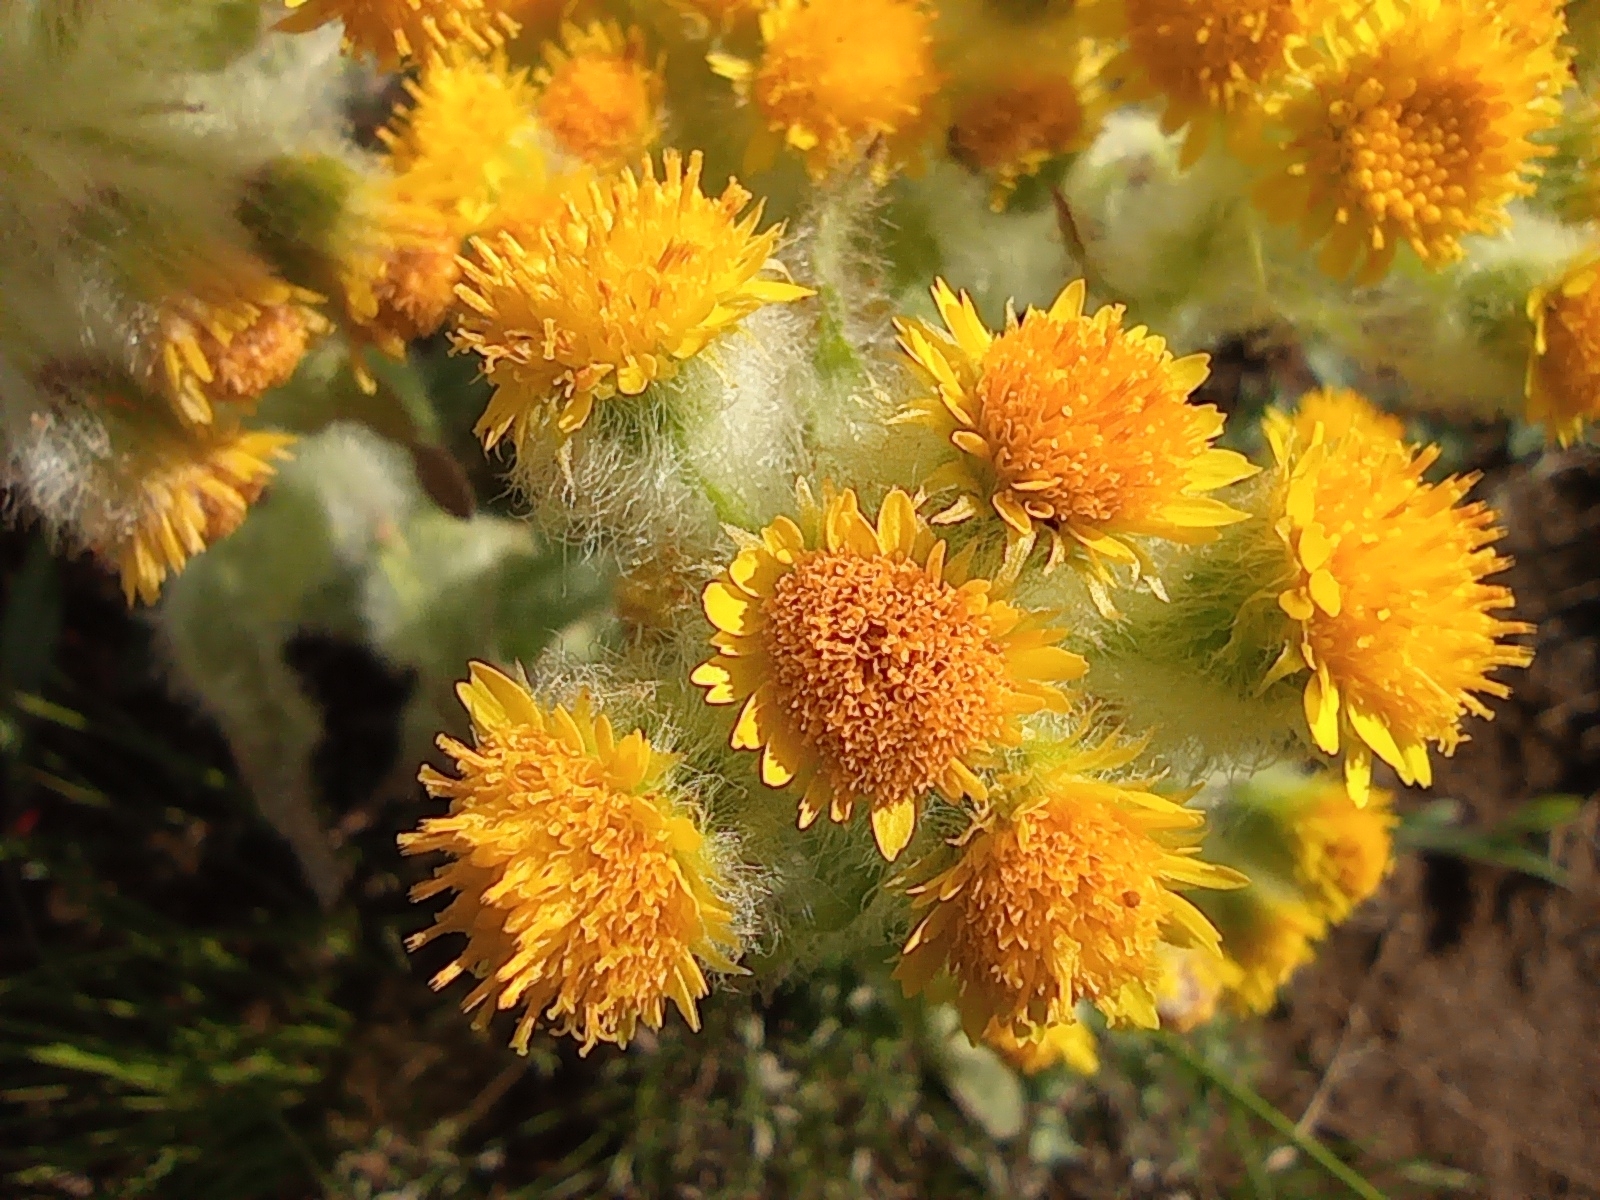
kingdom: Plantae
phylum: Tracheophyta
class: Magnoliopsida
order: Asterales
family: Asteraceae
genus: Tephroseris
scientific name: Tephroseris palustris
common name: Marsh fleawort
